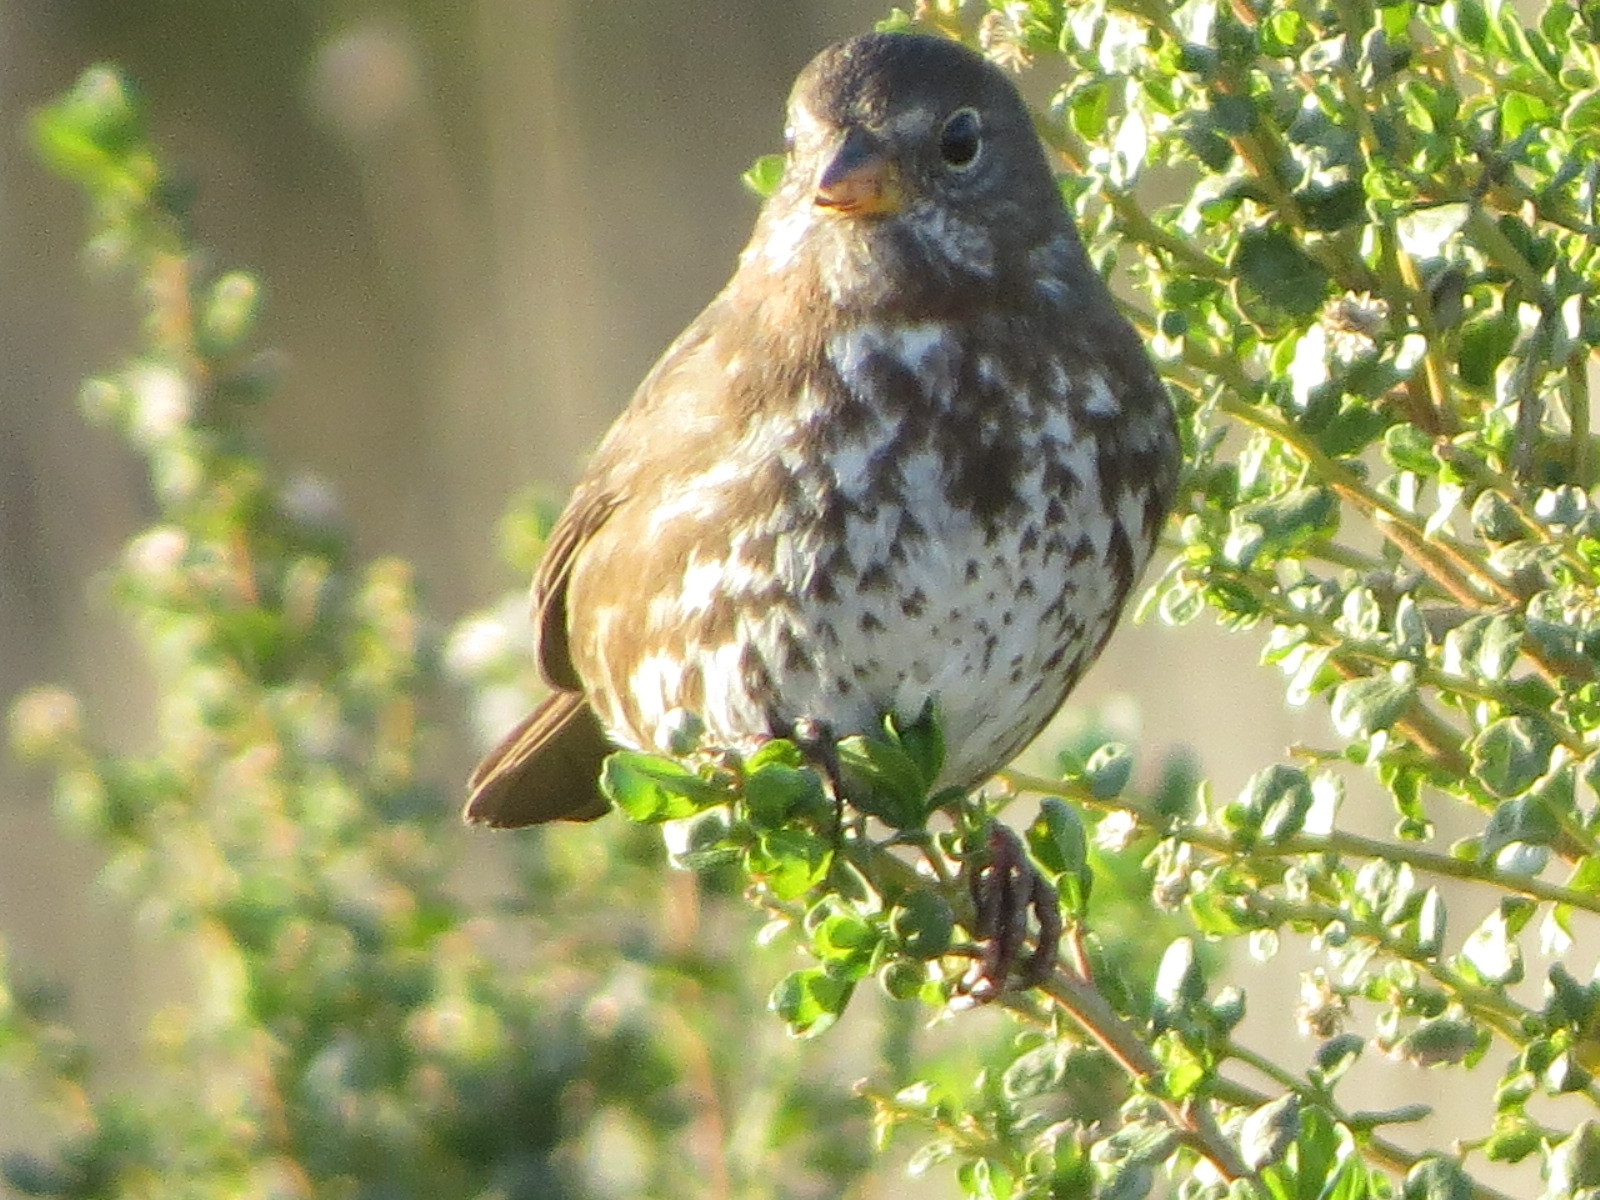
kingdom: Animalia
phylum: Chordata
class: Aves
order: Passeriformes
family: Passerellidae
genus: Passerella
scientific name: Passerella iliaca
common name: Fox sparrow
